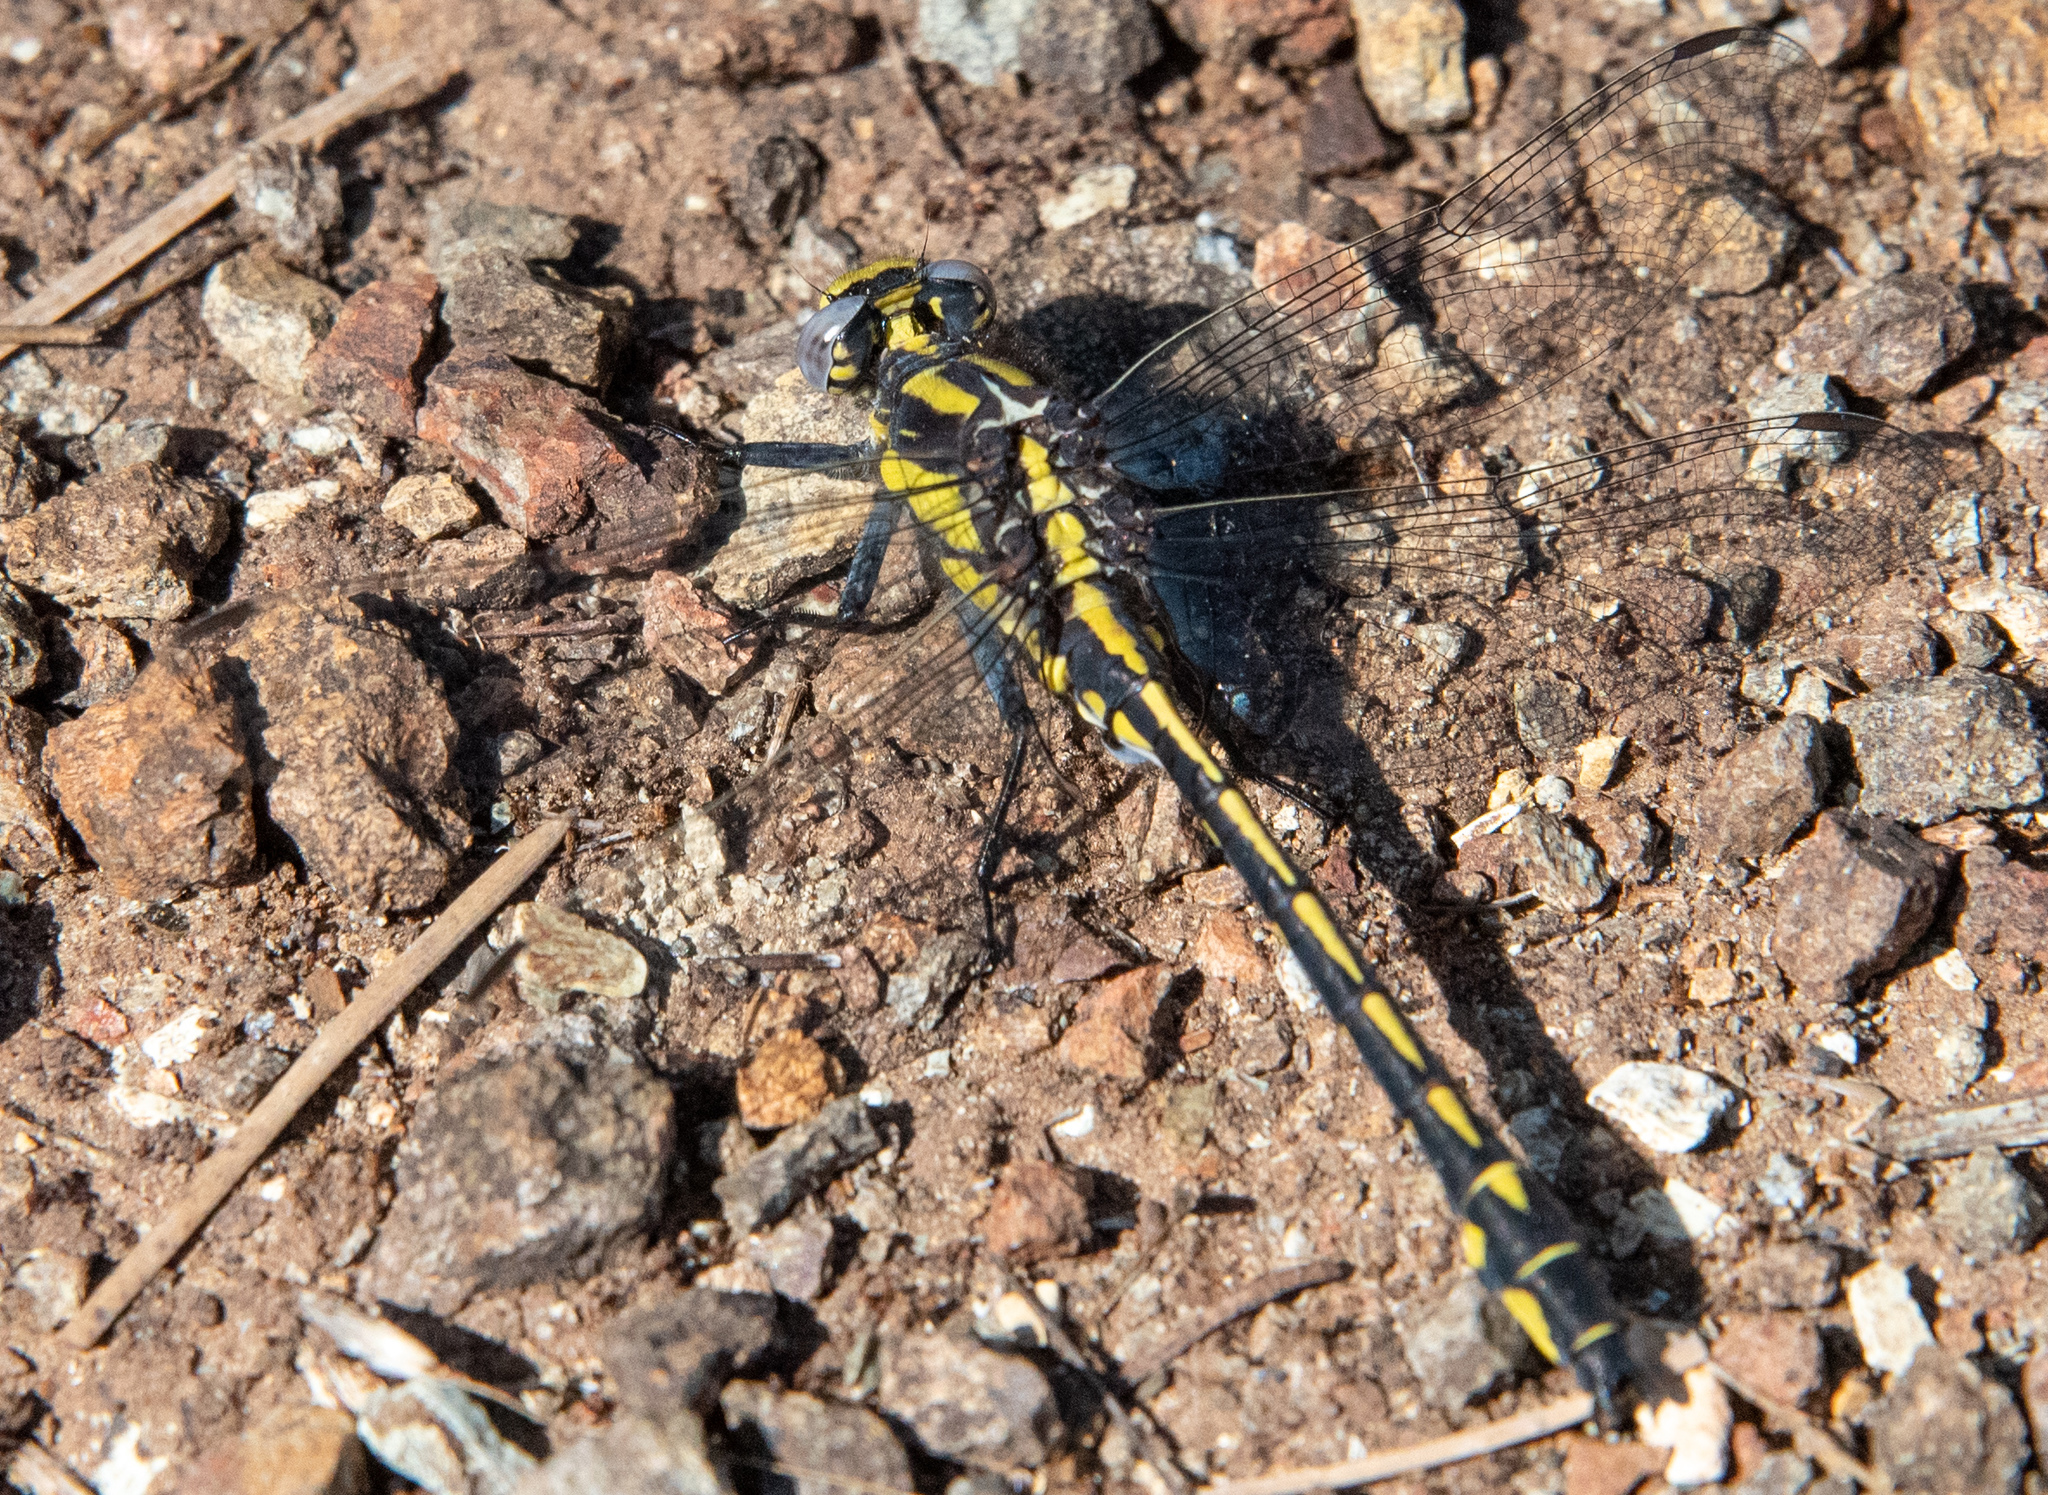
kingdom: Animalia
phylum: Arthropoda
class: Insecta
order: Odonata
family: Gomphidae
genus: Phanogomphus
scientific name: Phanogomphus kurilis
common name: Pacific clubtail
